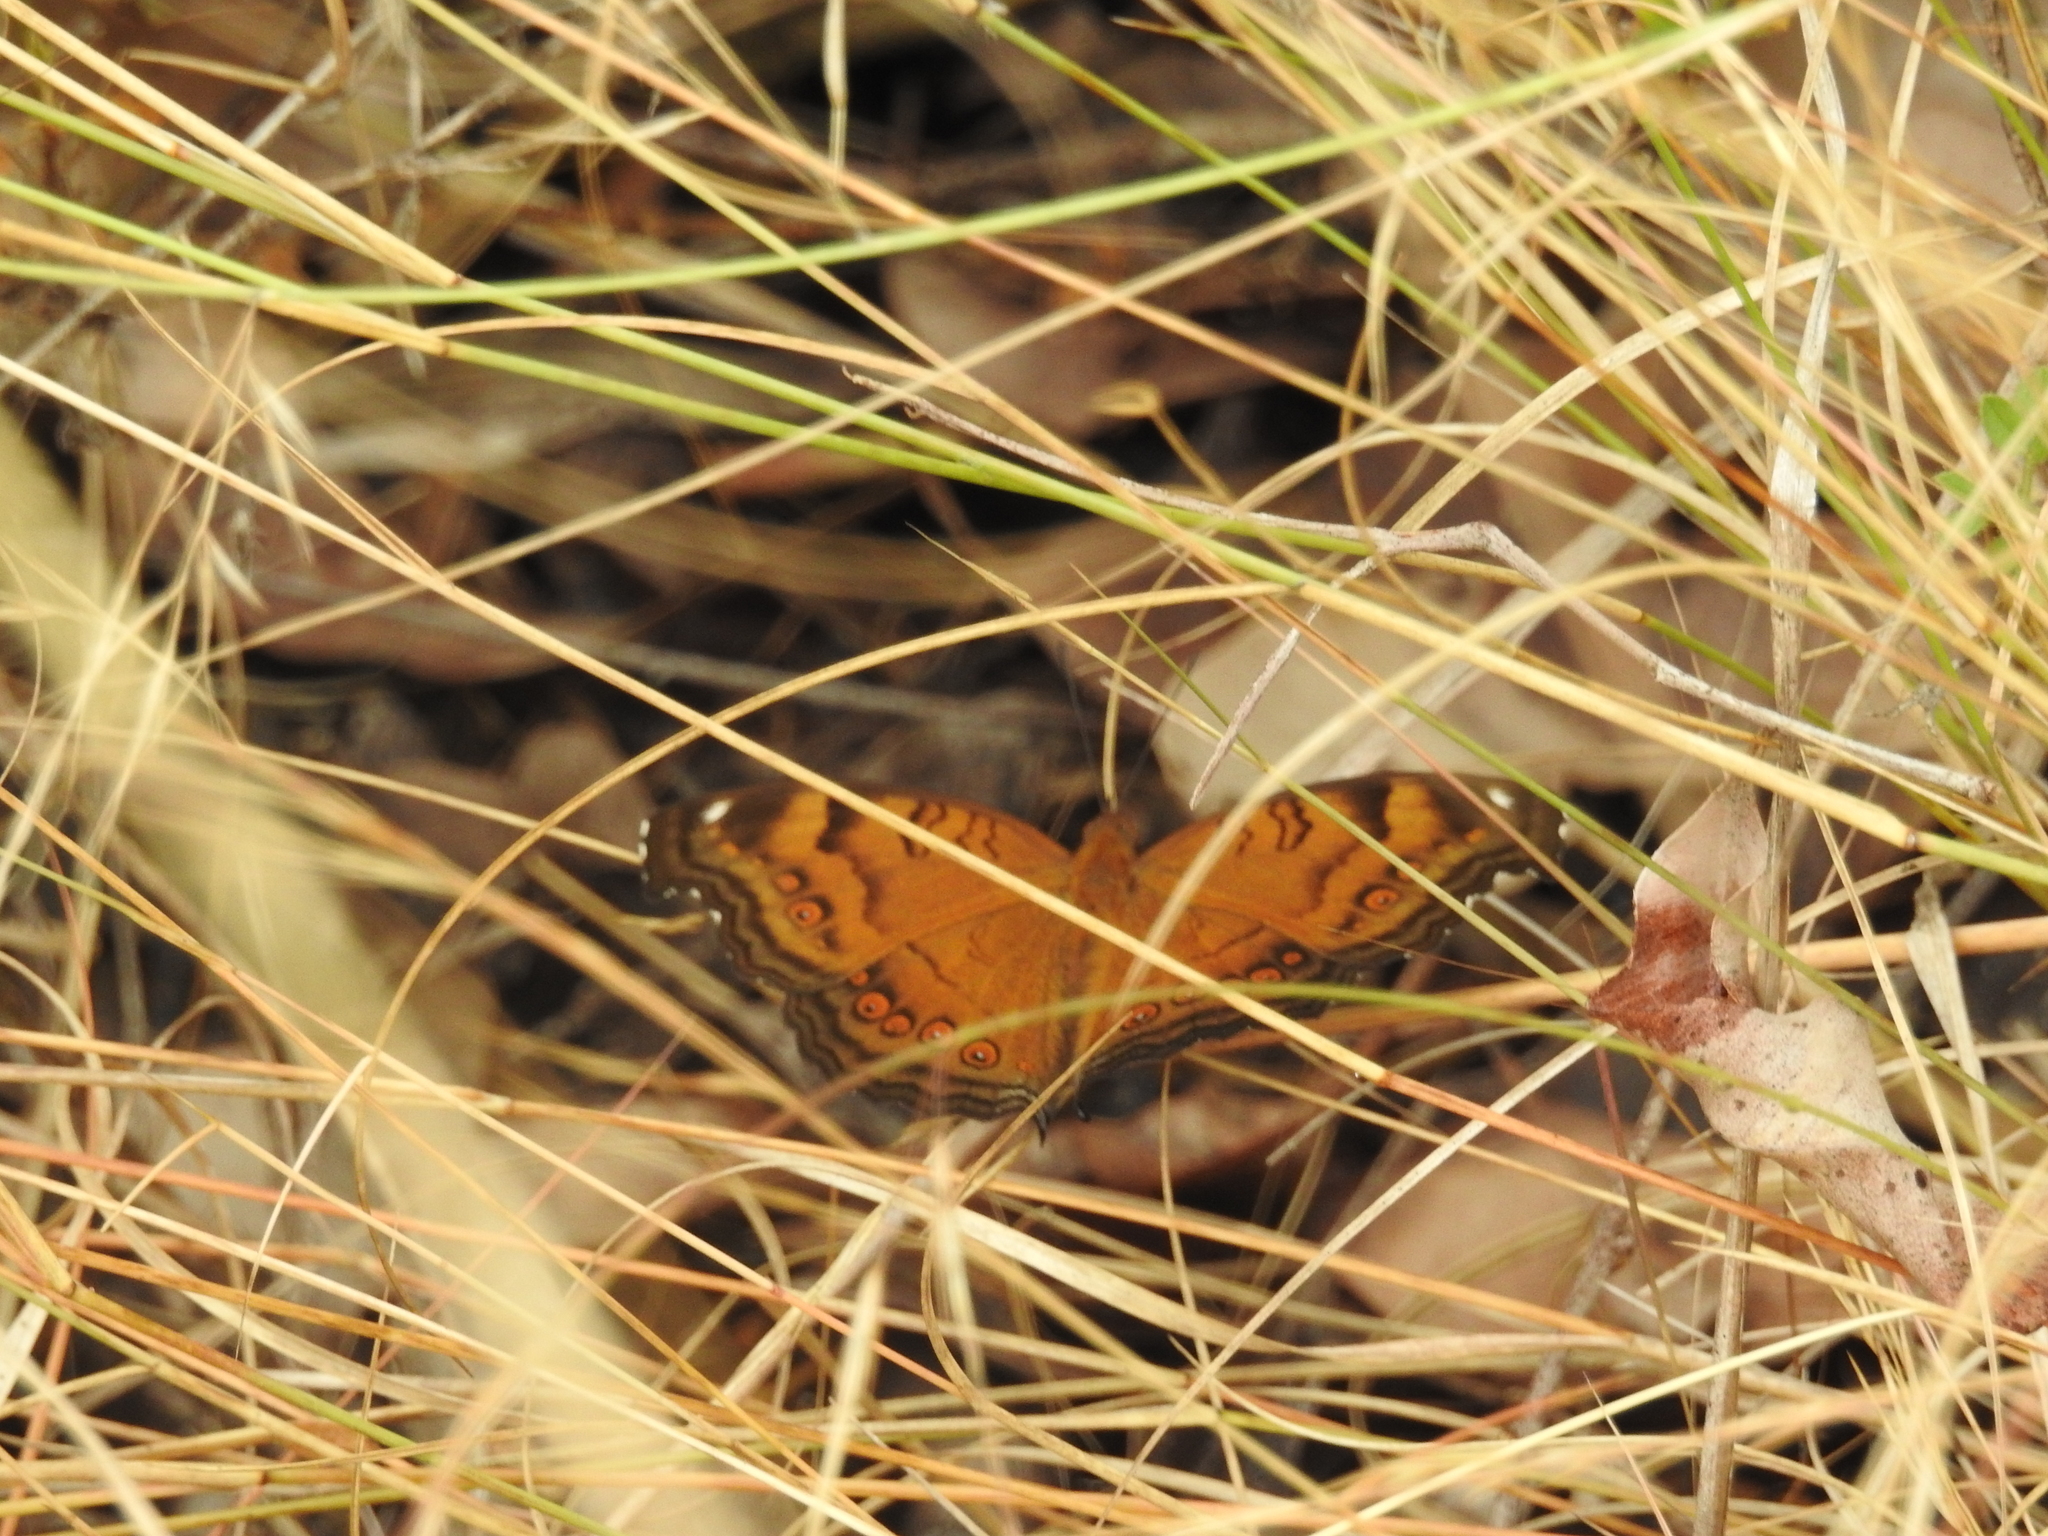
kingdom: Animalia
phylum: Arthropoda
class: Insecta
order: Lepidoptera
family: Nymphalidae
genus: Junonia
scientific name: Junonia hedonia
